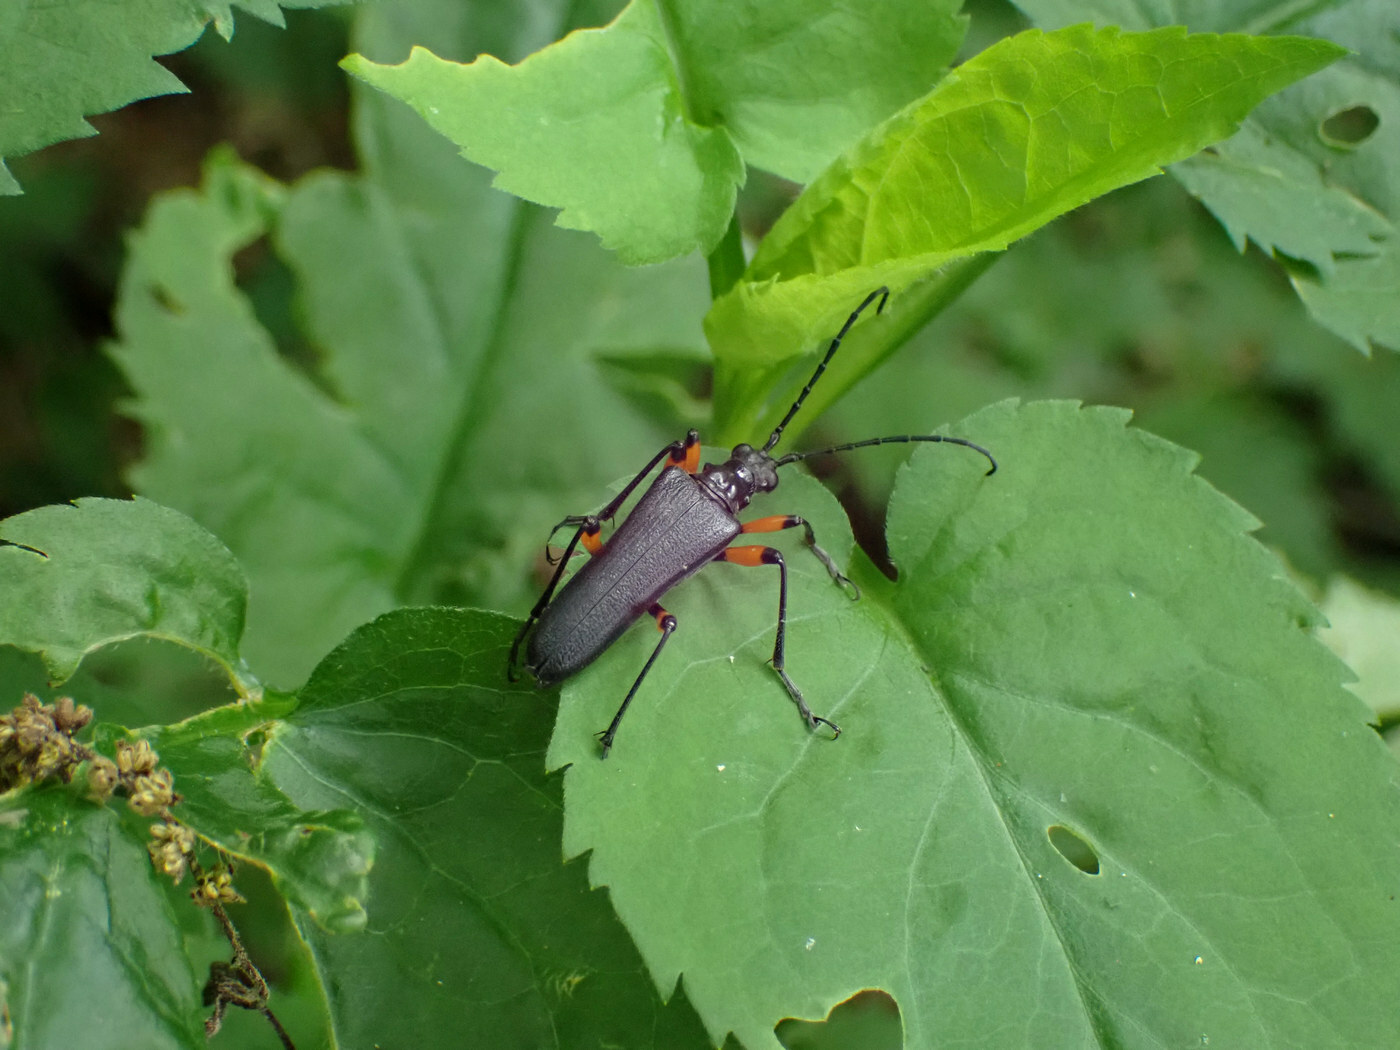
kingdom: Animalia
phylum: Arthropoda
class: Insecta
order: Coleoptera
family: Cerambycidae
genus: Stenocorus
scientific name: Stenocorus schaumii
